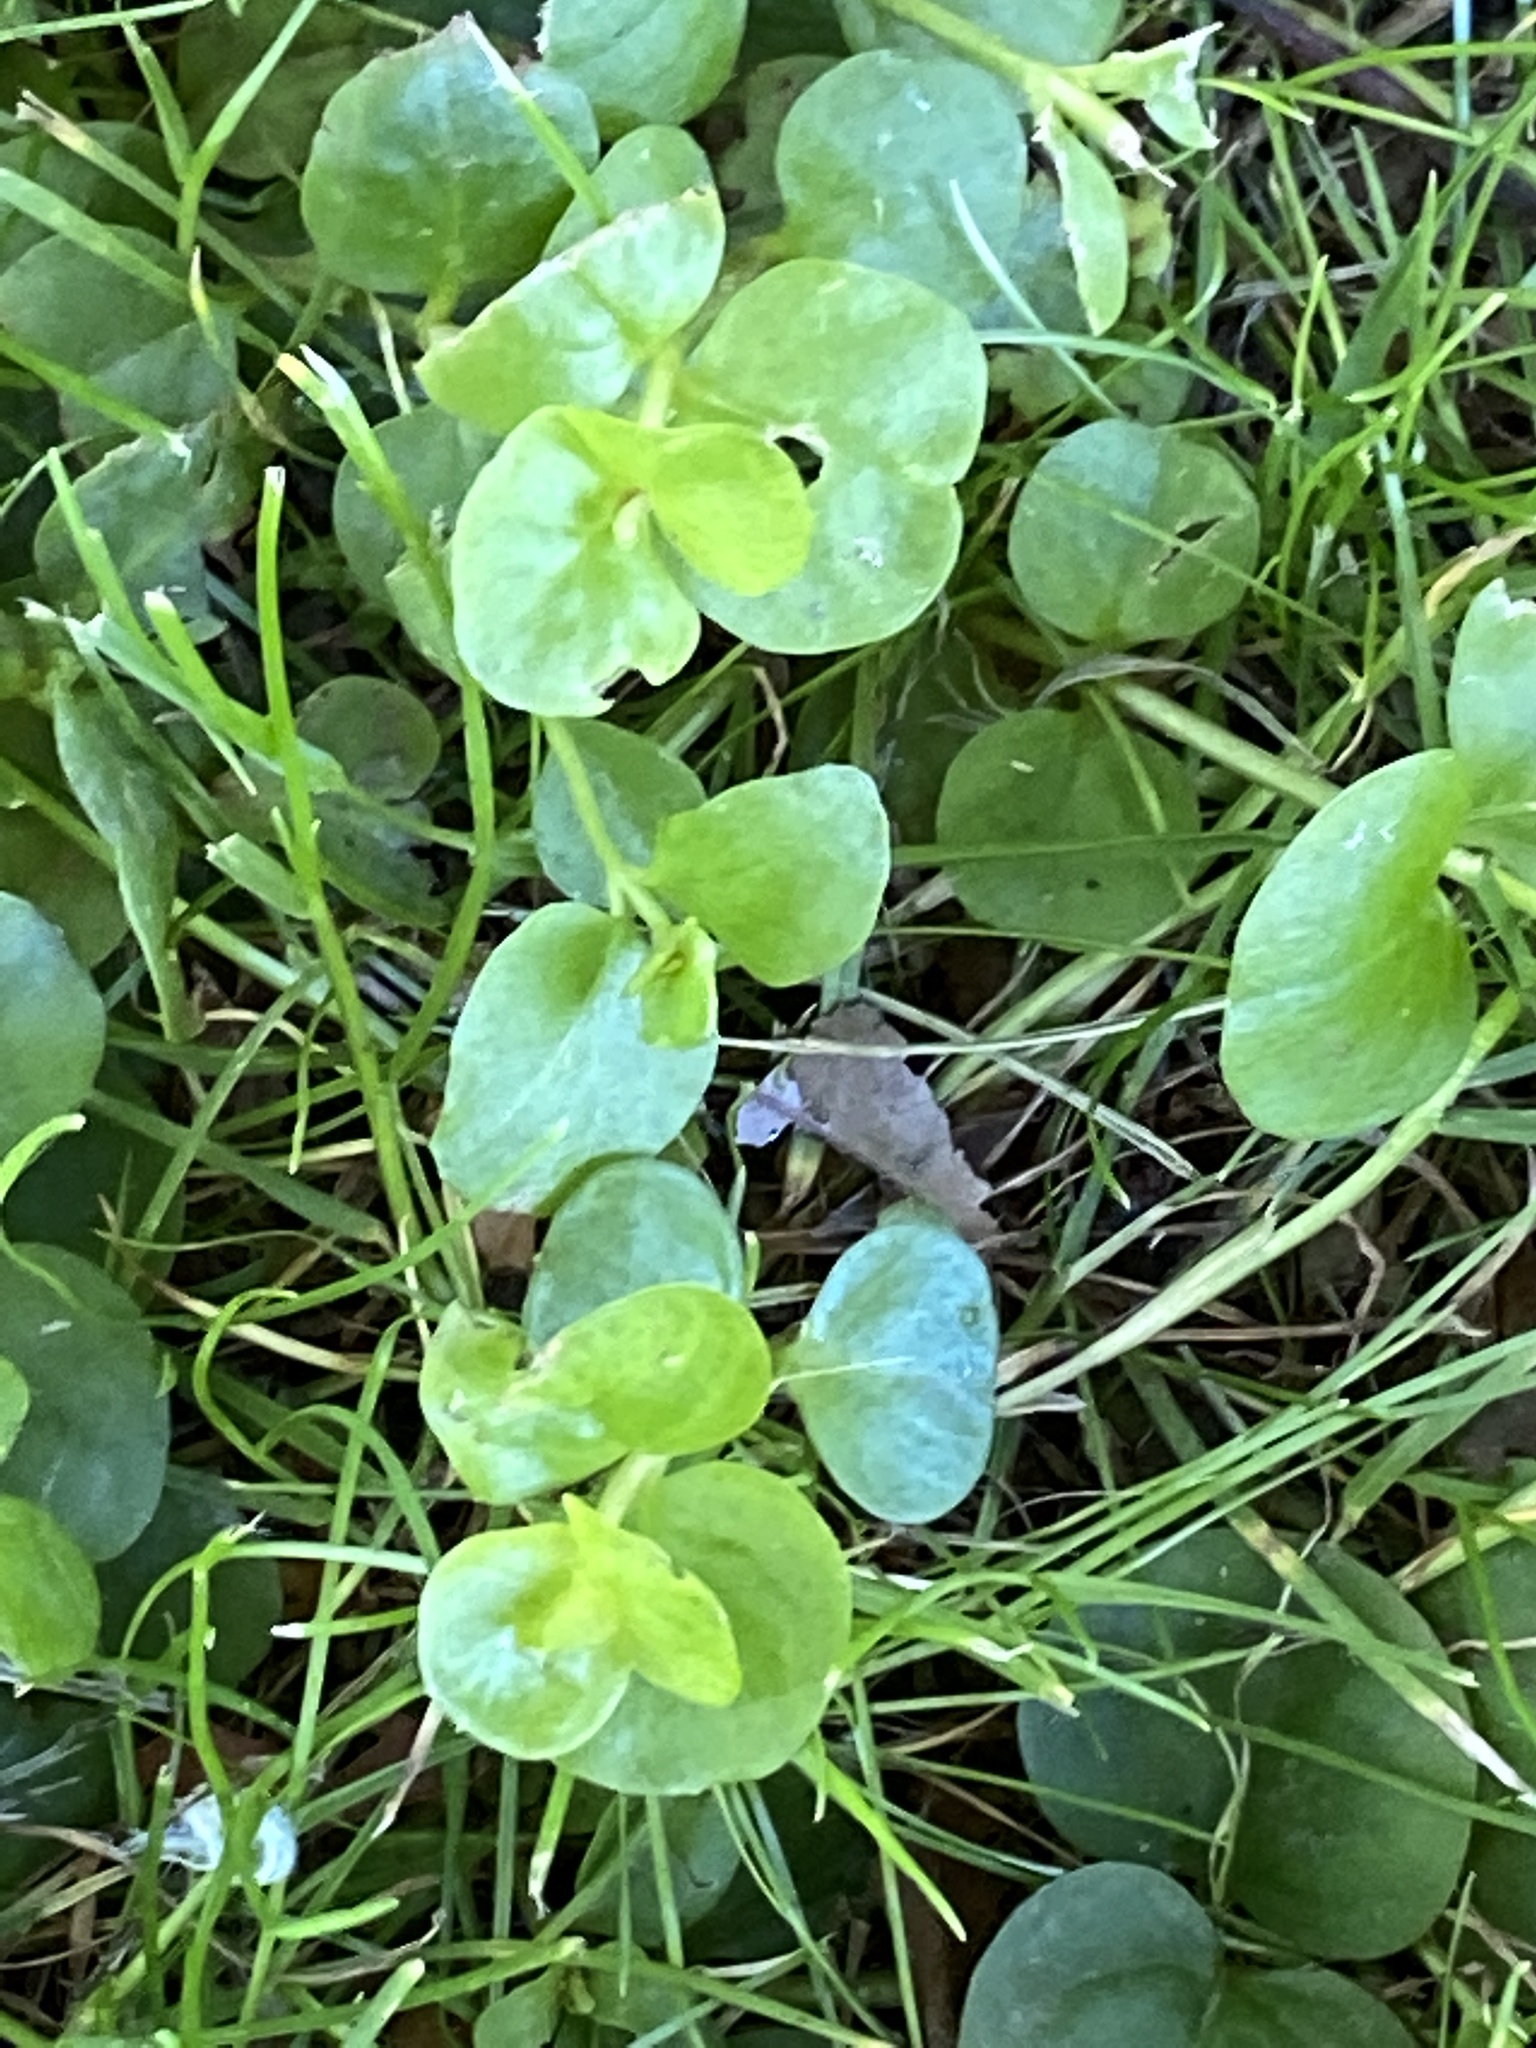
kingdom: Plantae
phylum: Tracheophyta
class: Magnoliopsida
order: Ericales
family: Primulaceae
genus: Lysimachia
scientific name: Lysimachia nummularia
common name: Moneywort
